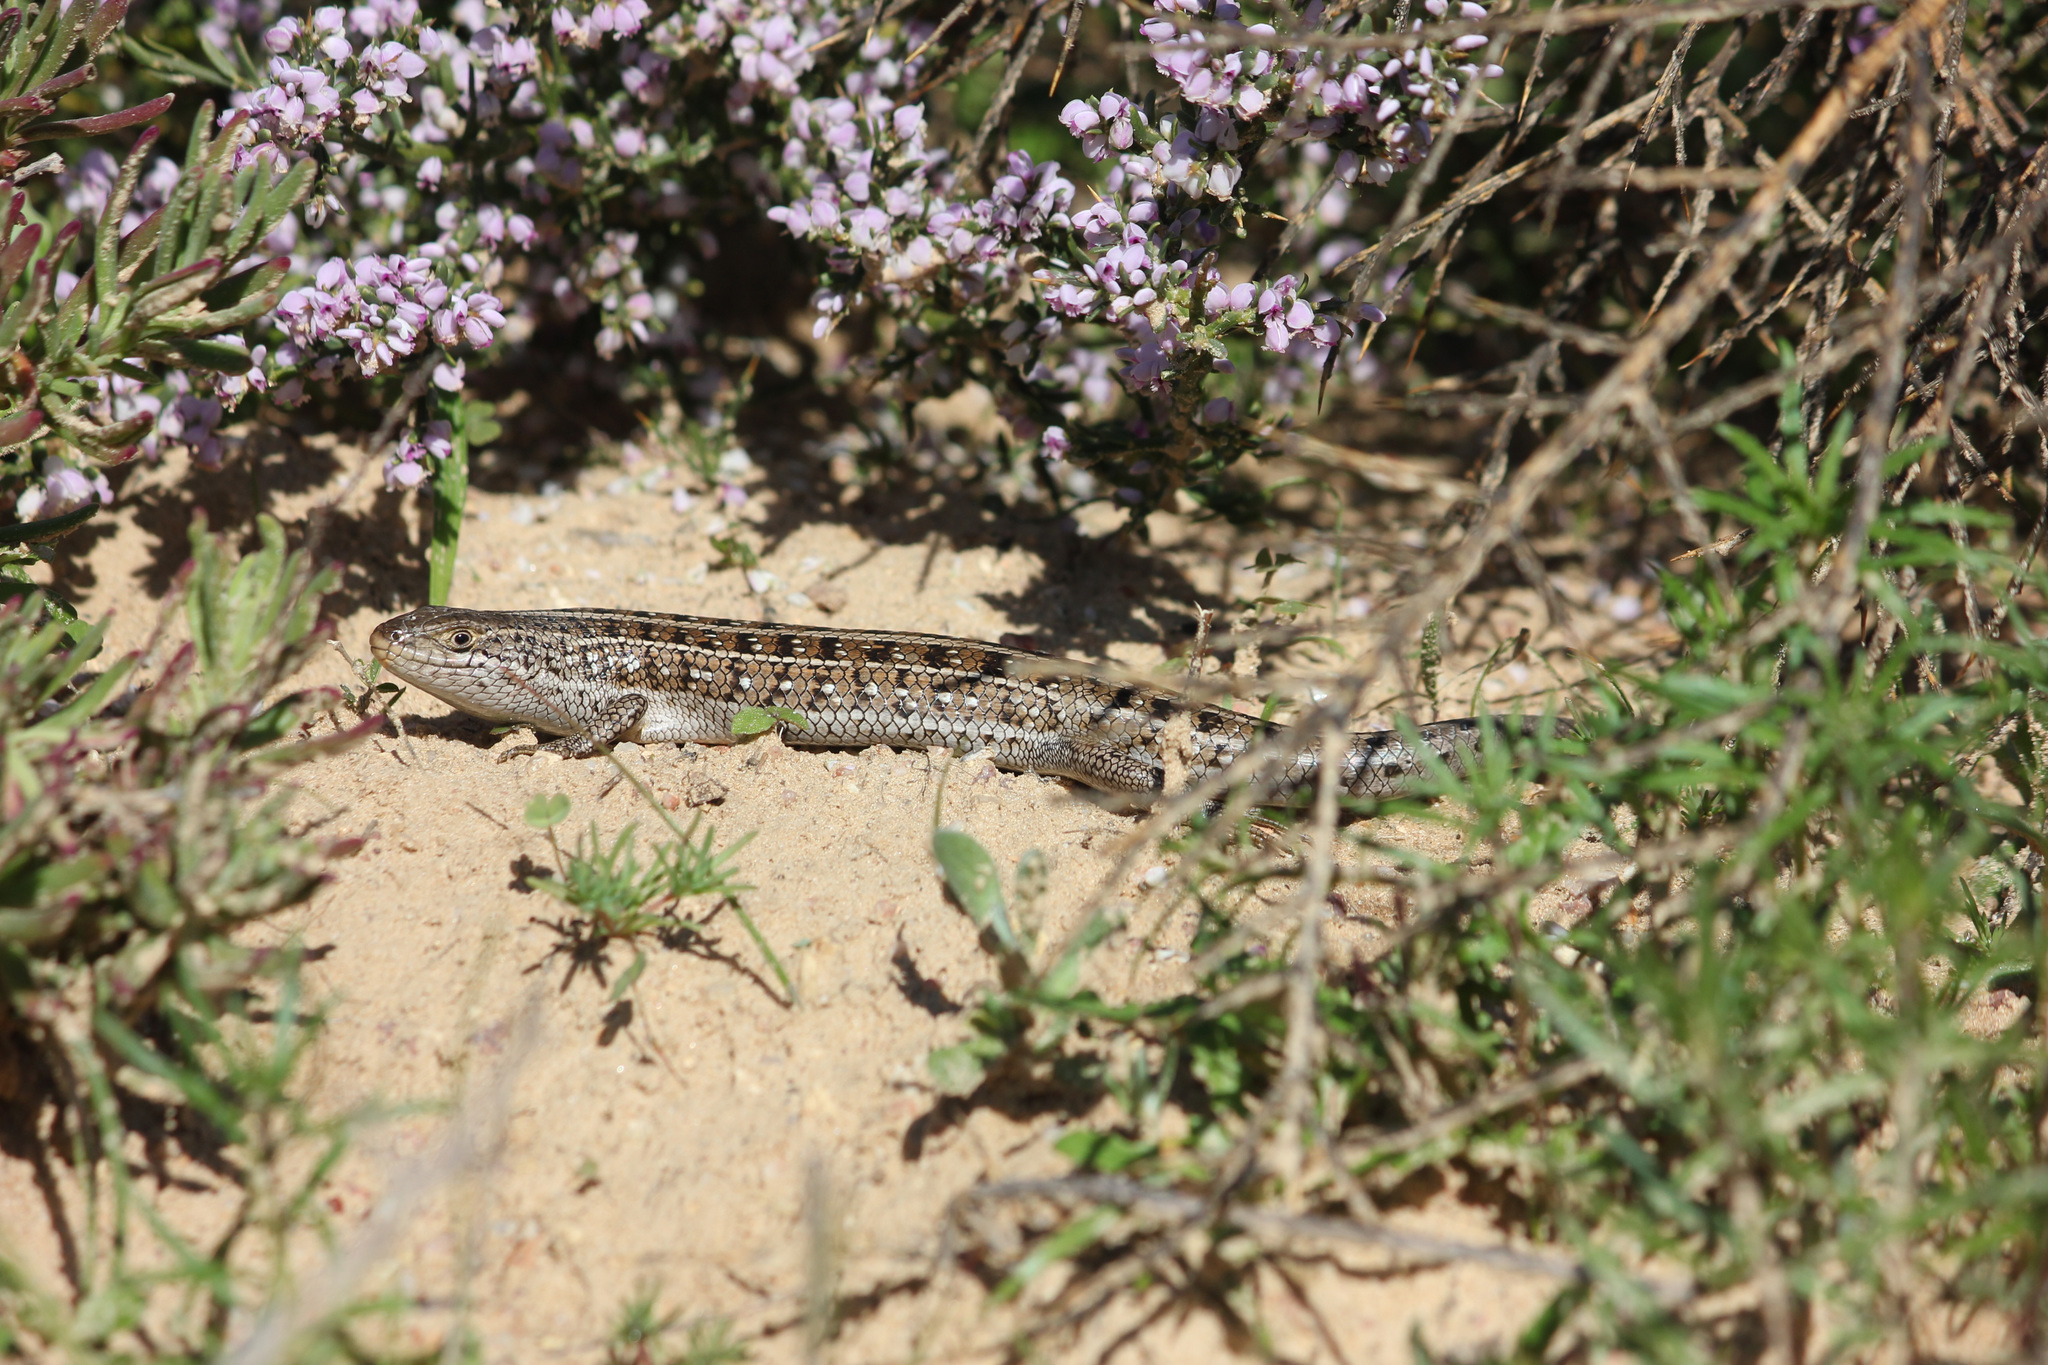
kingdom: Animalia
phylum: Chordata
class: Squamata
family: Scincidae
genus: Trachylepis
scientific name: Trachylepis capensis
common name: Cape skink
